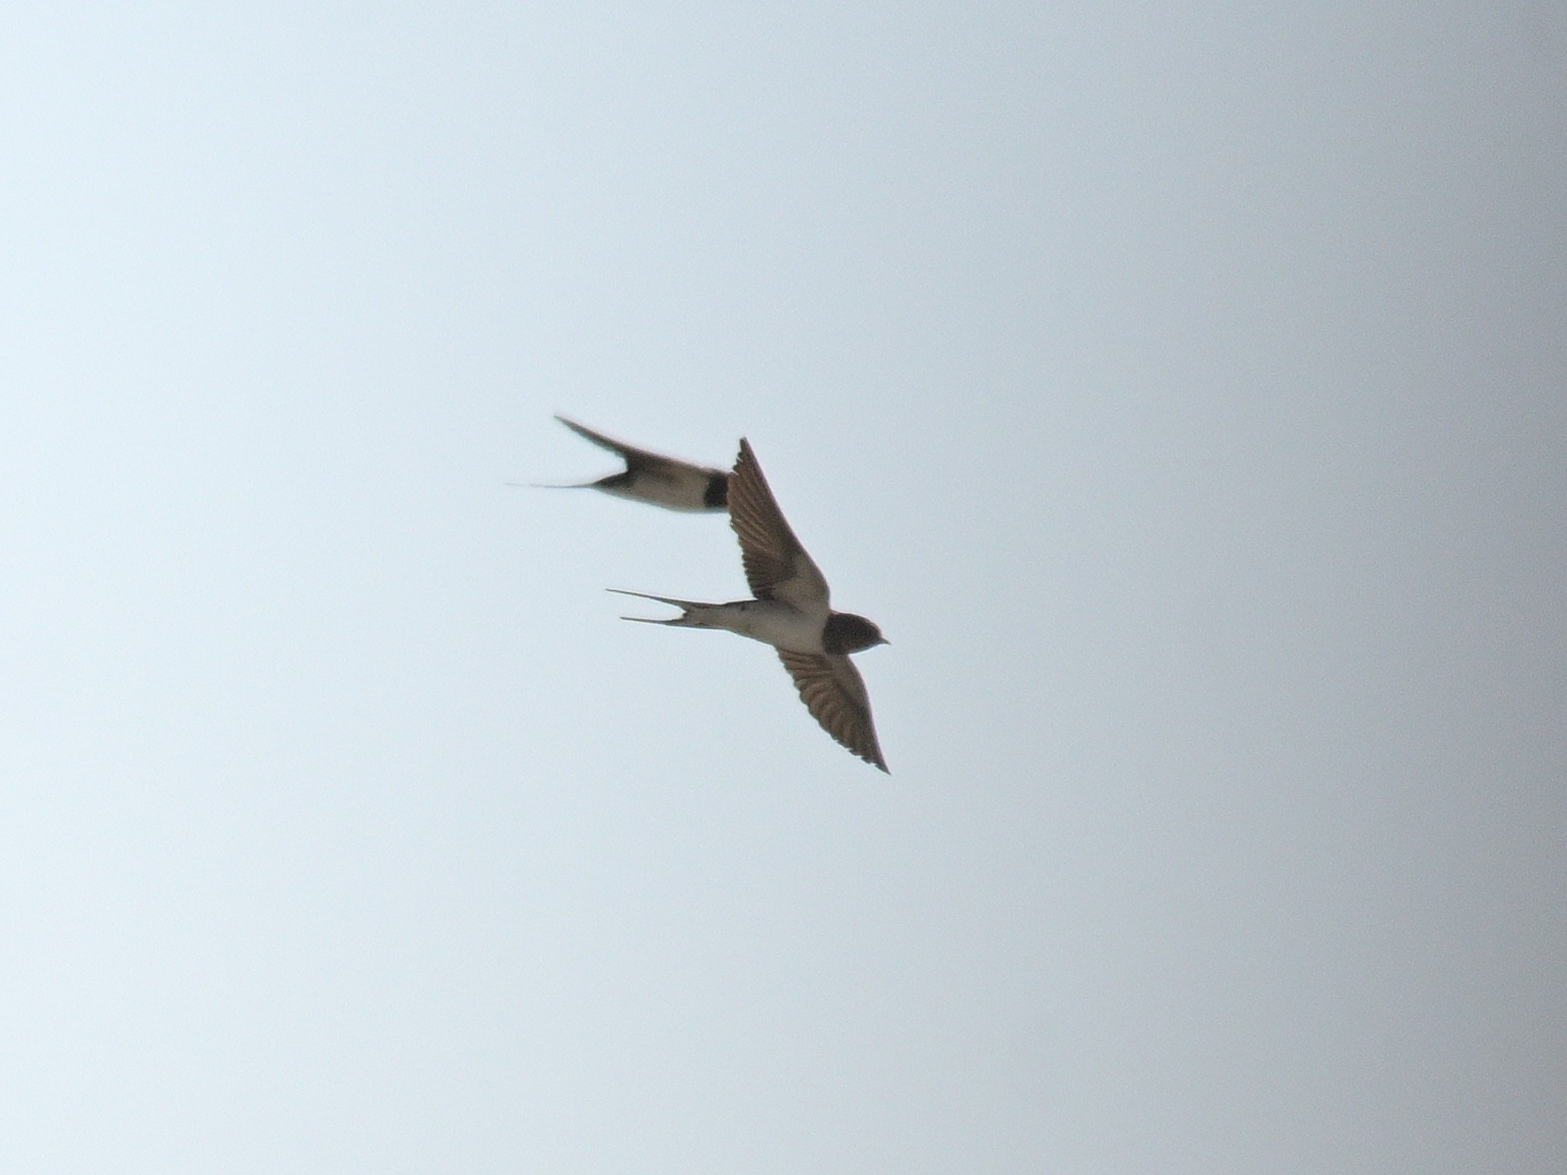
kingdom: Animalia
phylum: Chordata
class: Aves
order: Passeriformes
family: Hirundinidae
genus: Hirundo
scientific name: Hirundo rustica
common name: Barn swallow
